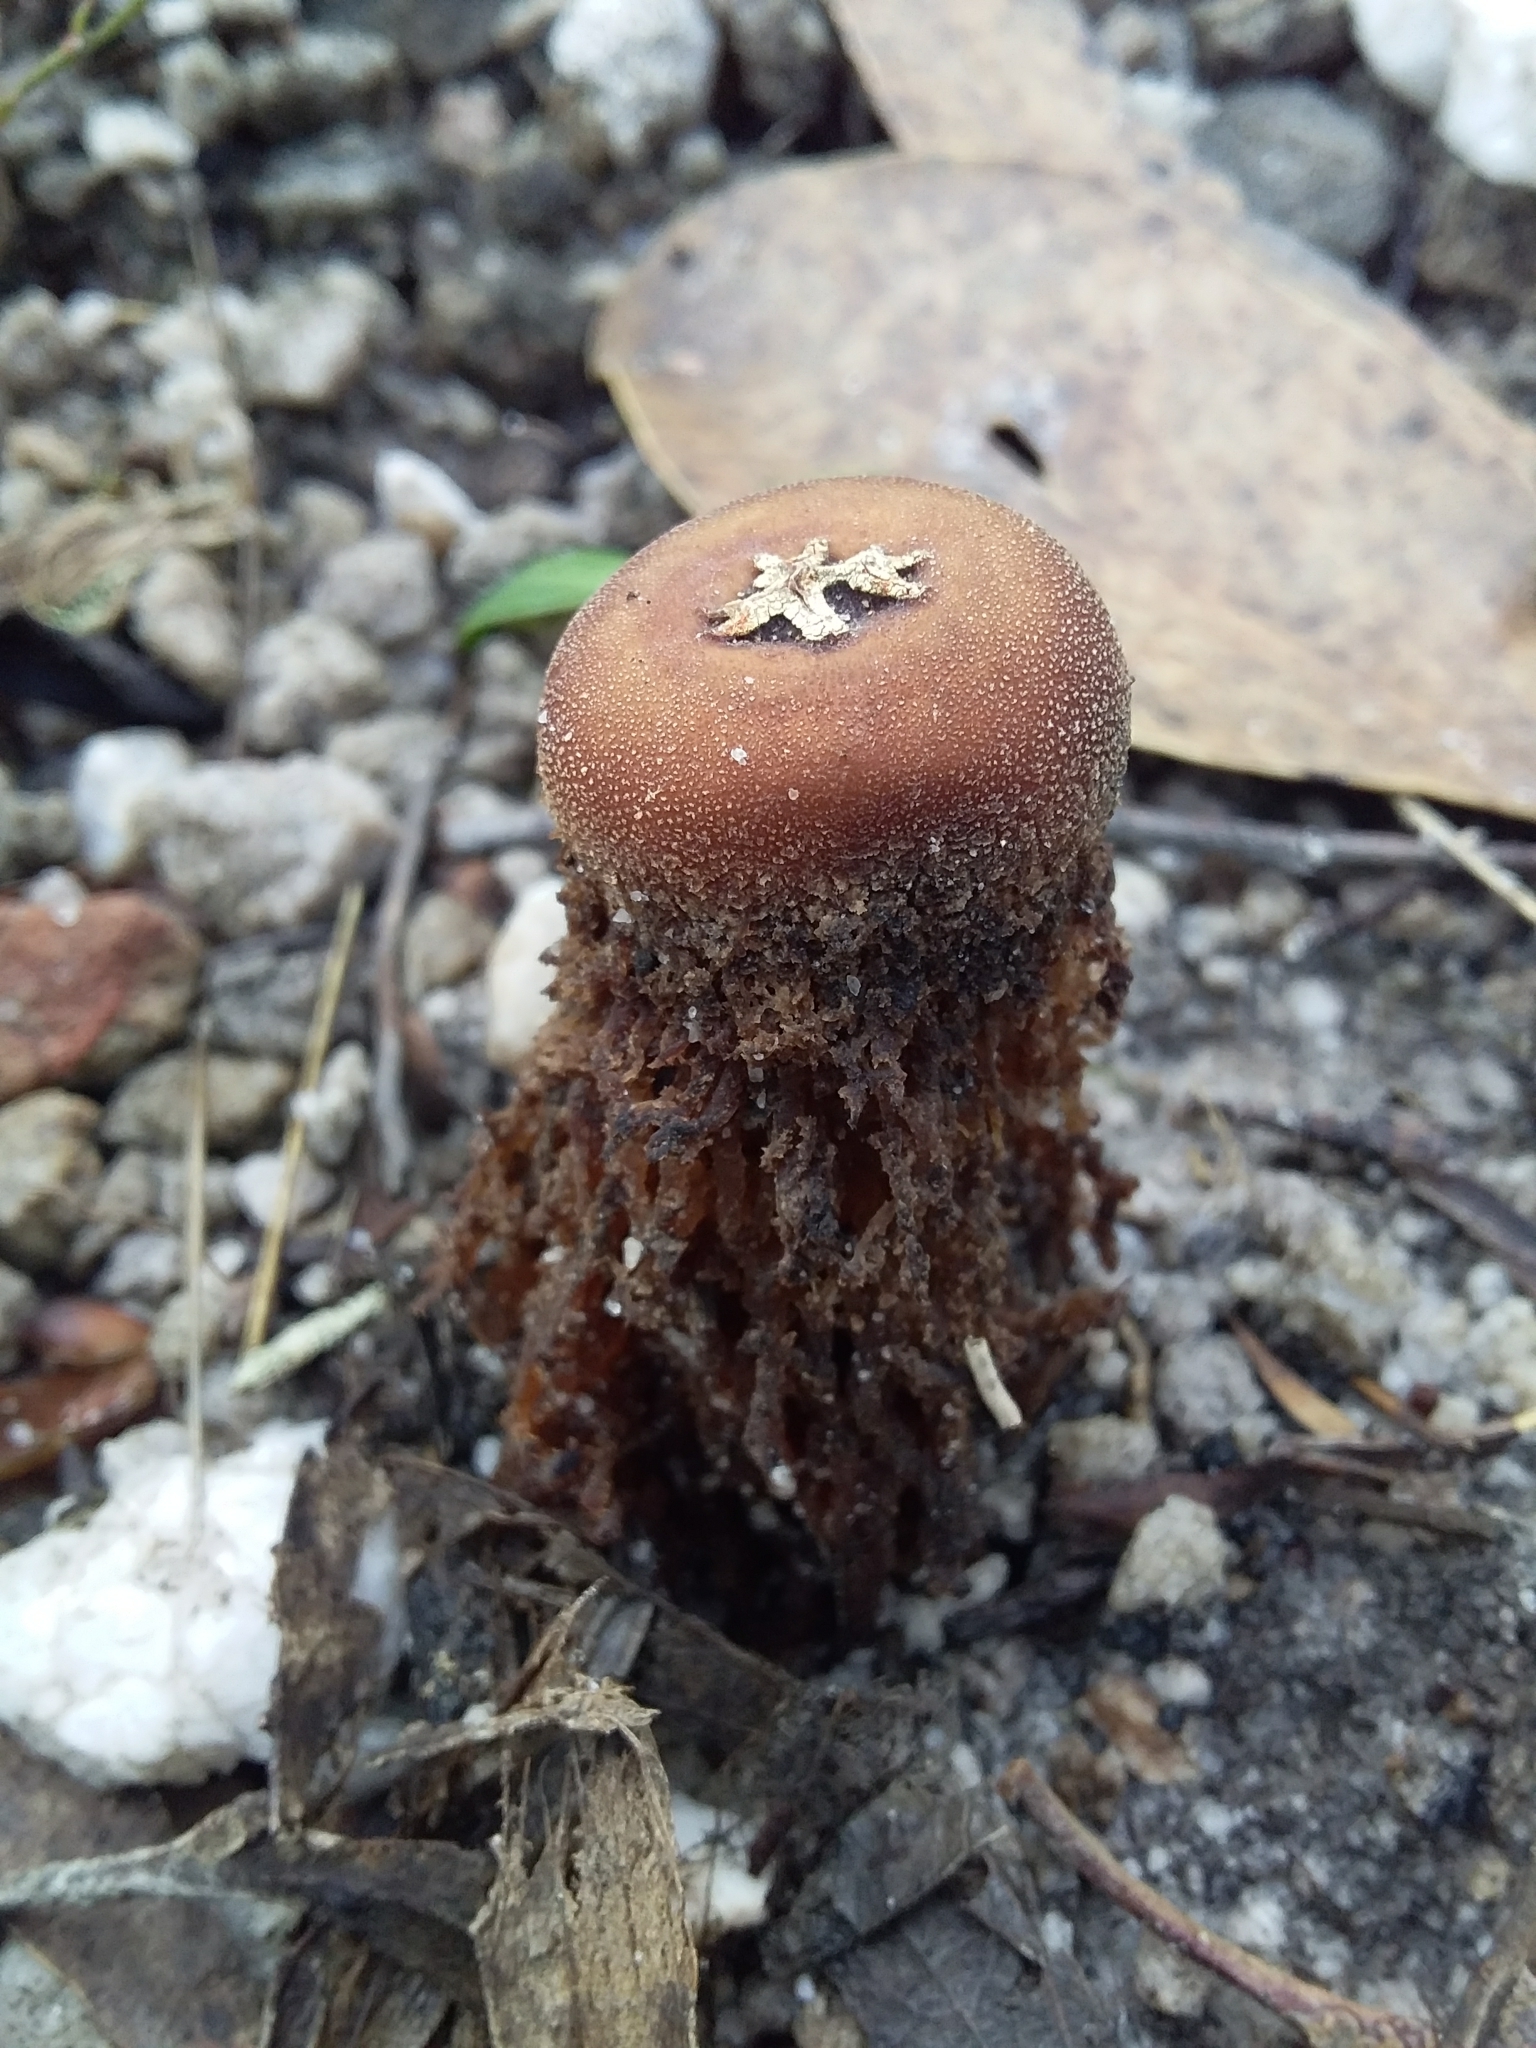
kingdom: Fungi
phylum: Basidiomycota
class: Agaricomycetes
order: Boletales
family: Calostomataceae
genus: Calostoma
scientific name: Calostoma fuscum
